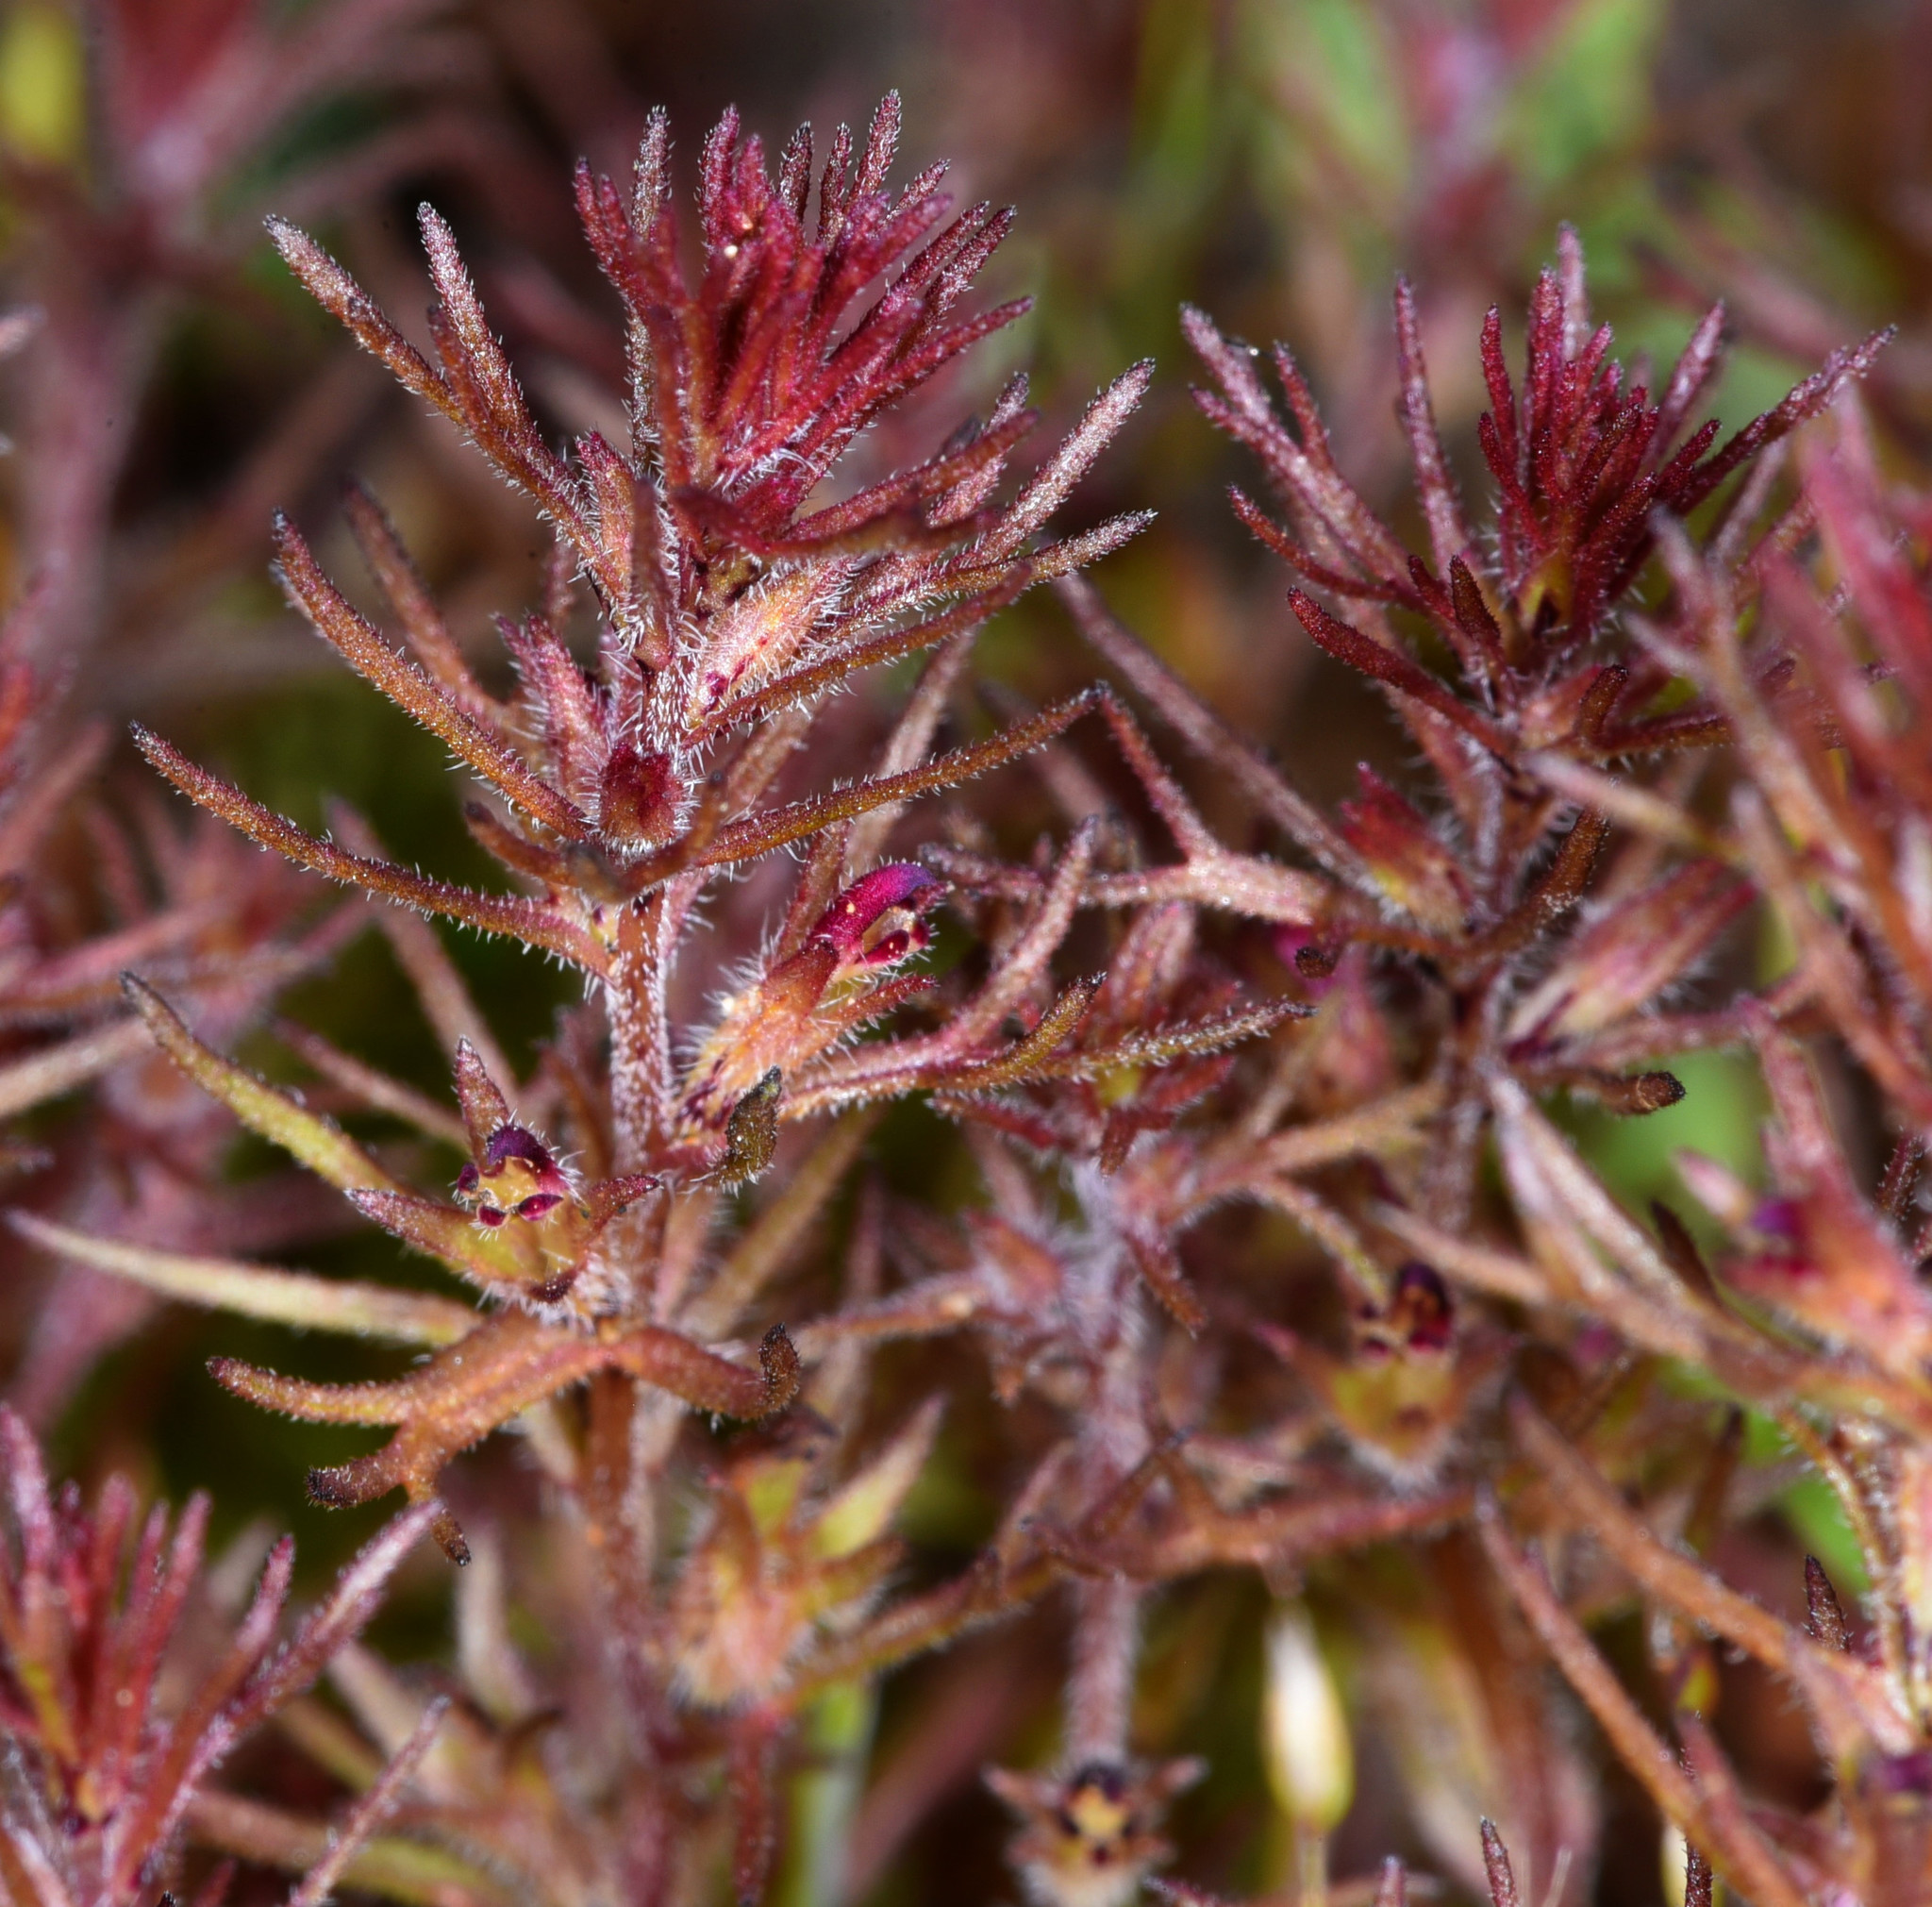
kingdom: Plantae
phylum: Tracheophyta
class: Magnoliopsida
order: Lamiales
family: Orobanchaceae
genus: Triphysaria
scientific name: Triphysaria pusilla
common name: Dwarf false owl-clover
